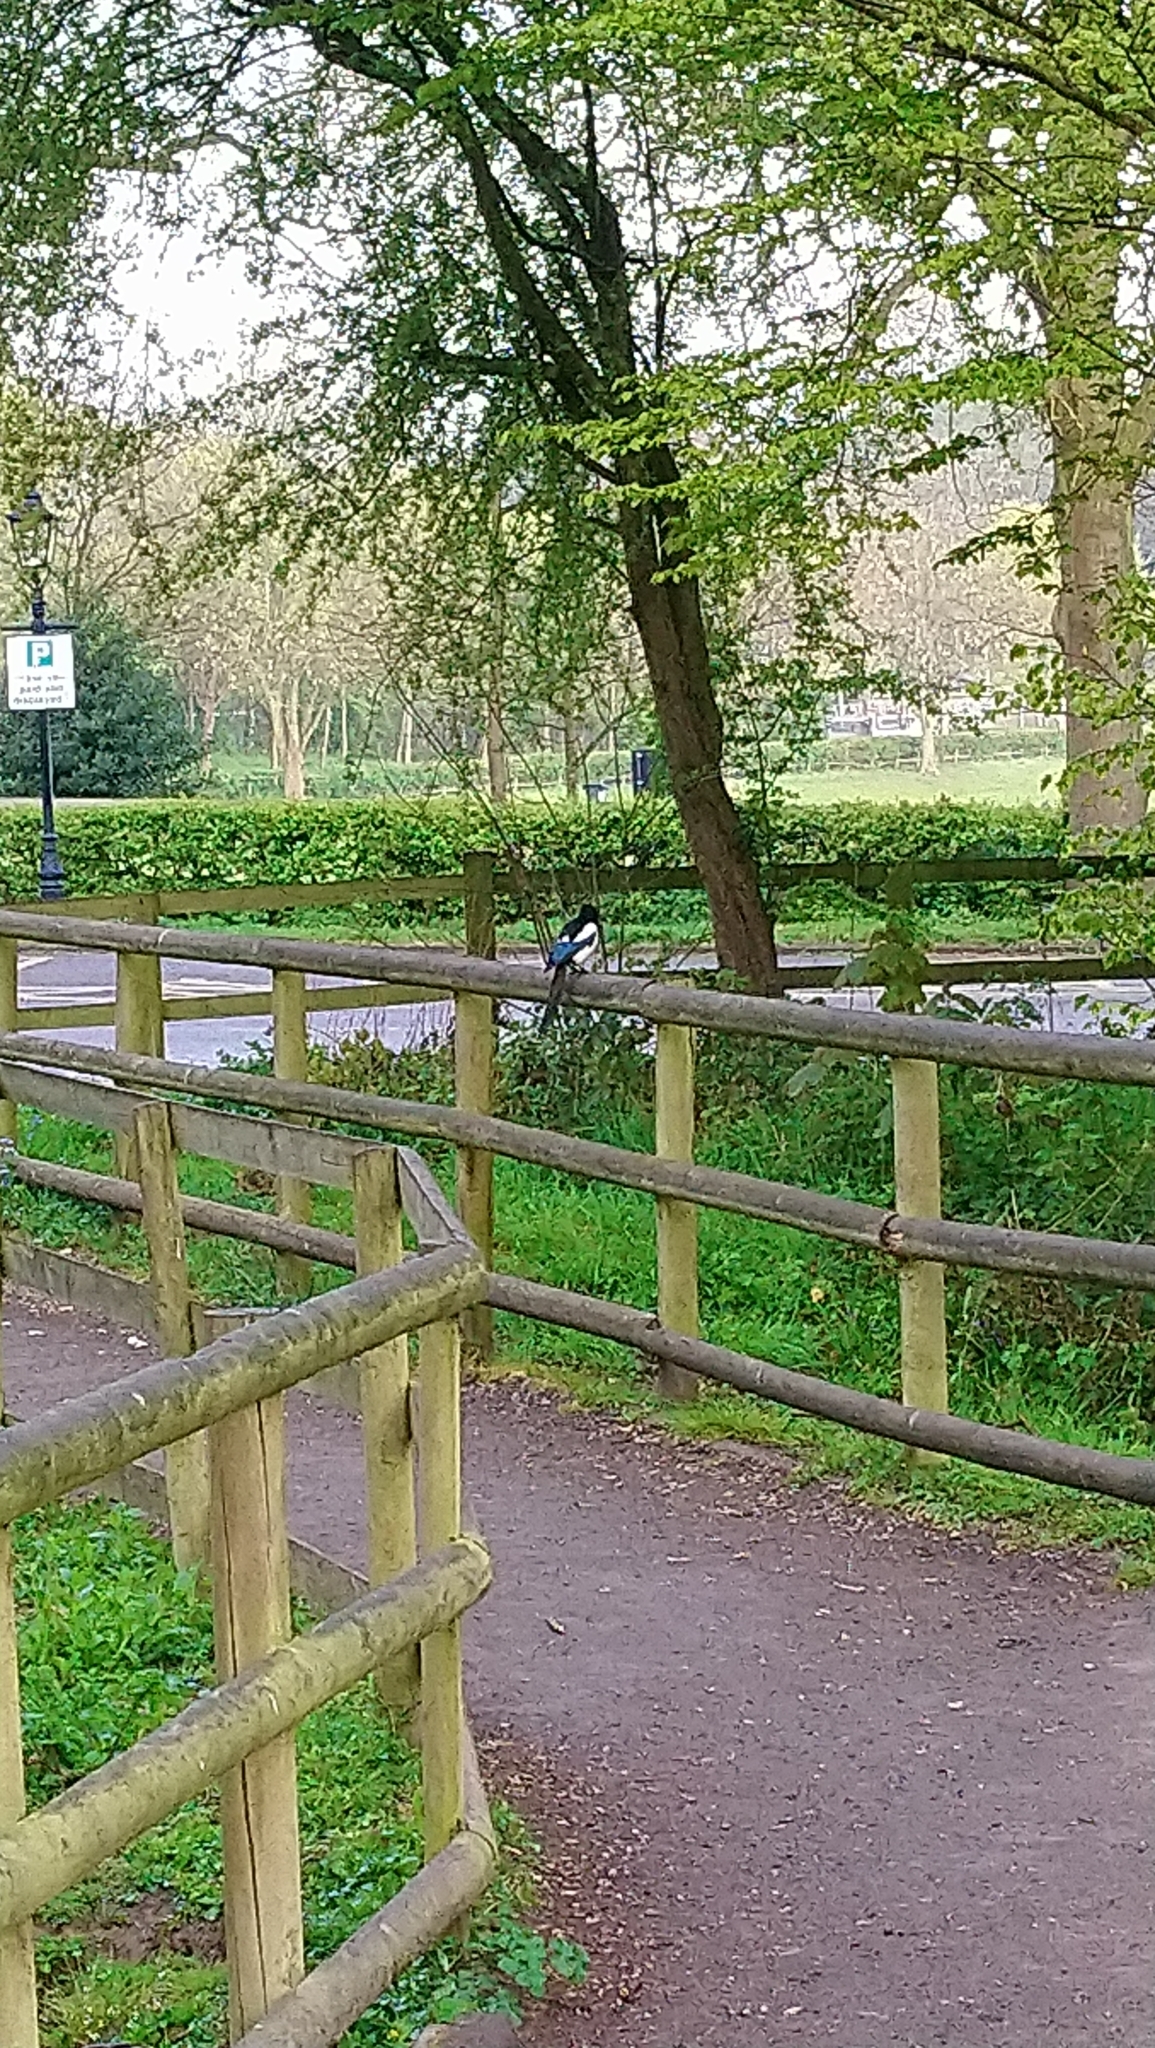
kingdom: Animalia
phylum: Chordata
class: Aves
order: Passeriformes
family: Corvidae
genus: Pica
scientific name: Pica pica
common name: Eurasian magpie
